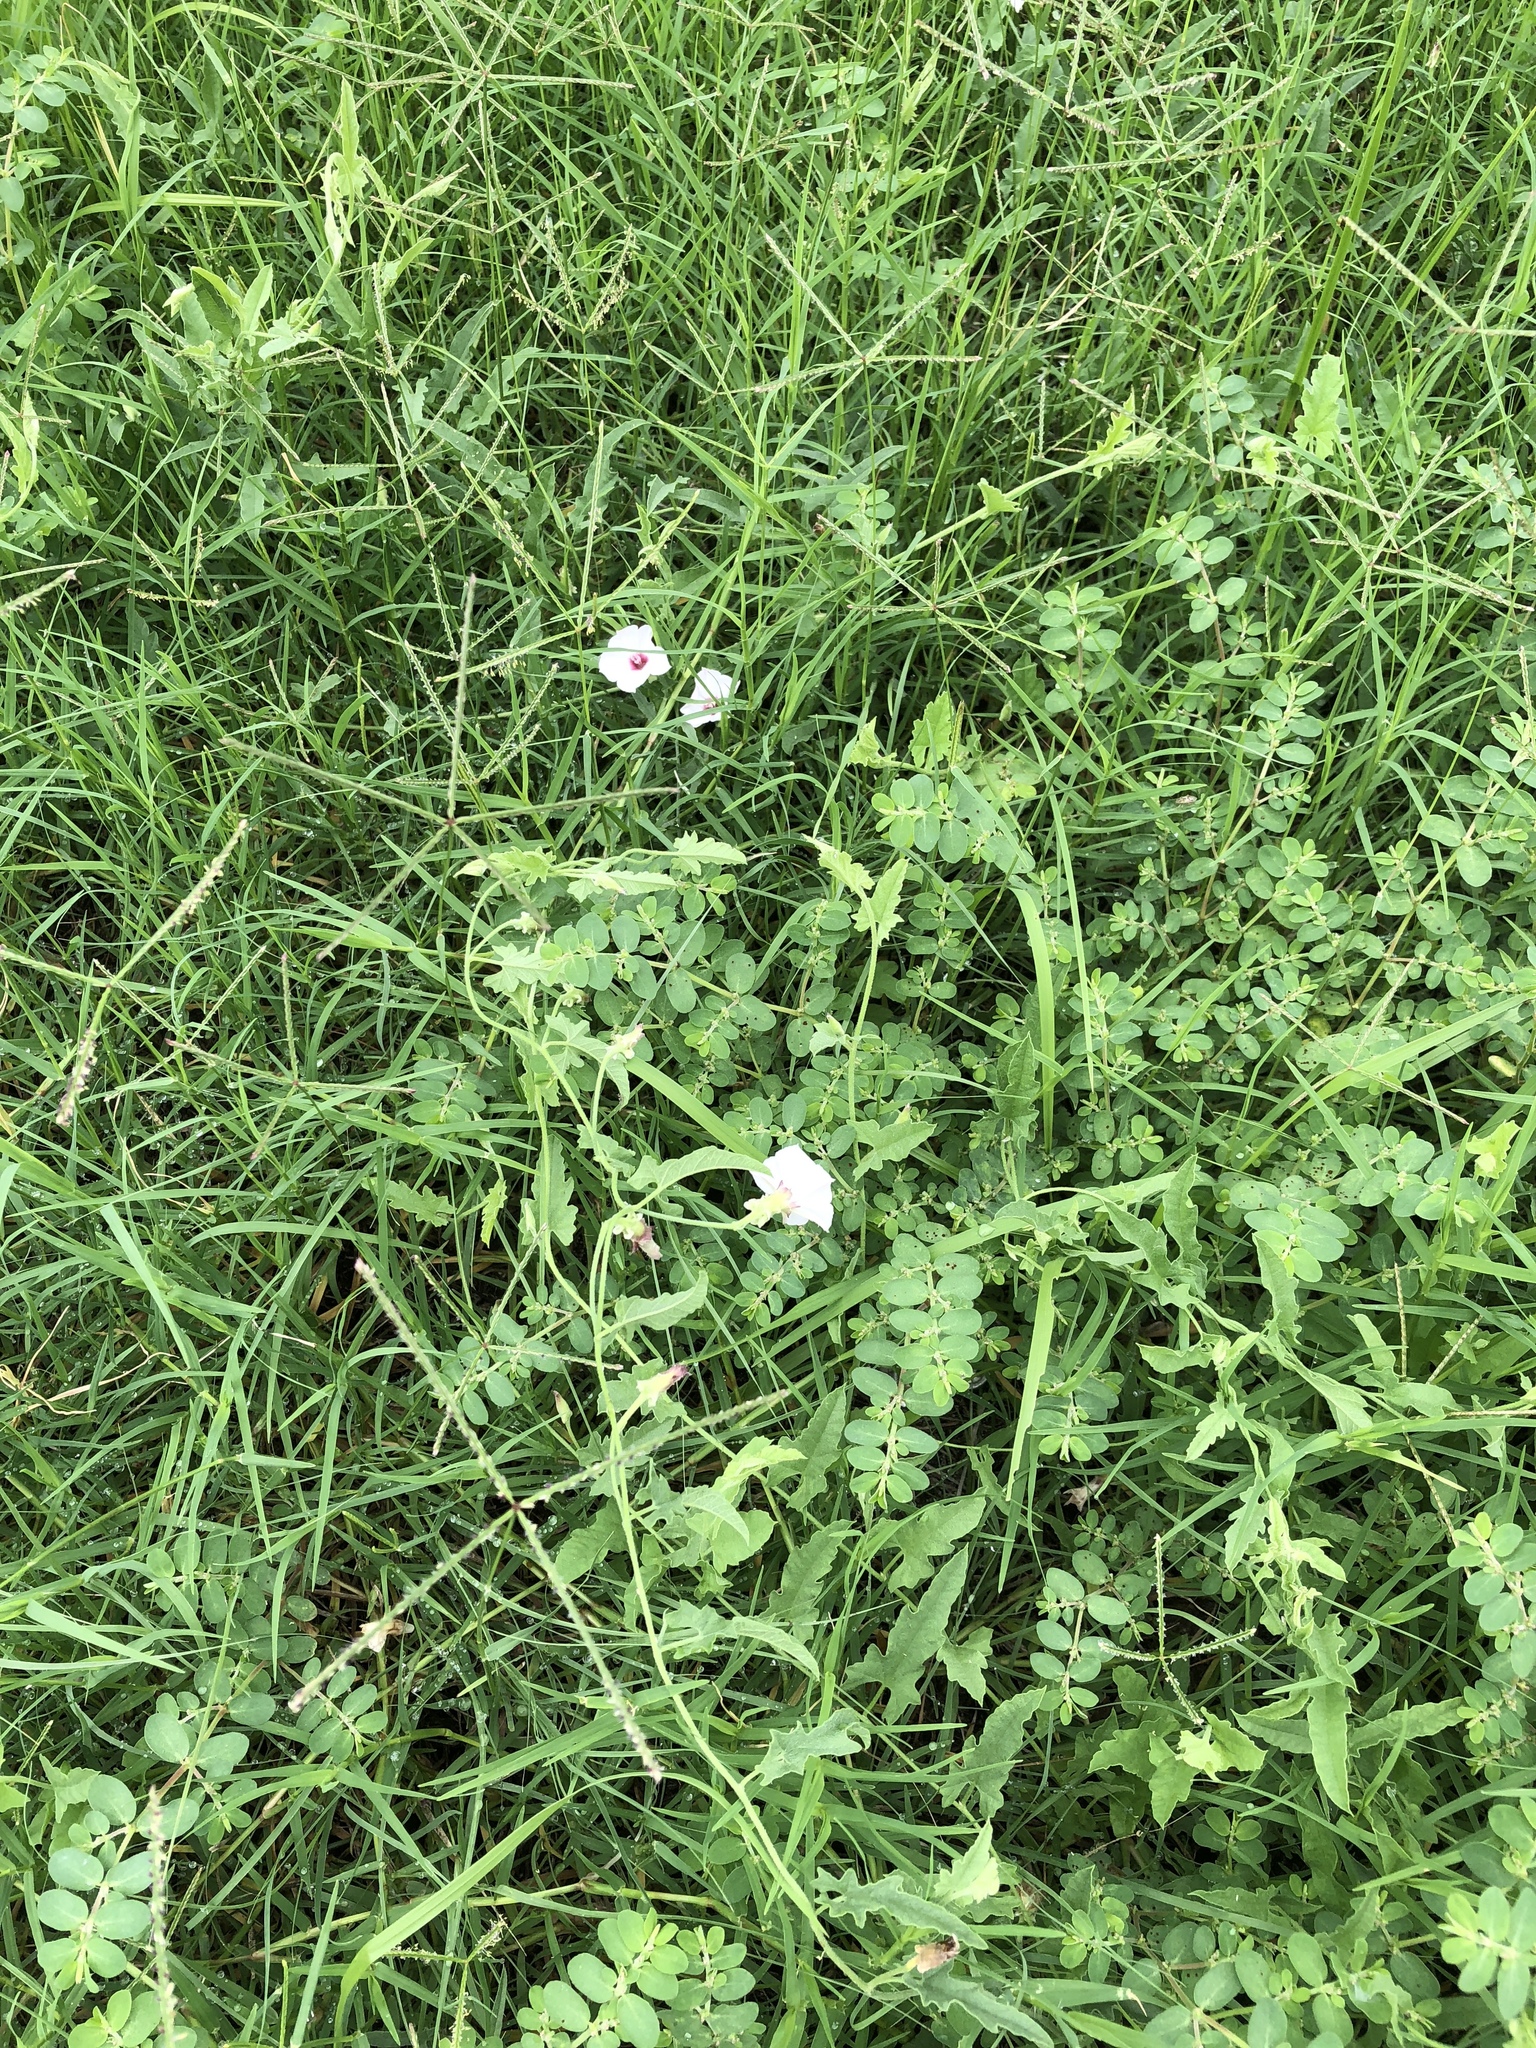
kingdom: Plantae
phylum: Tracheophyta
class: Magnoliopsida
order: Solanales
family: Convolvulaceae
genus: Convolvulus
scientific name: Convolvulus equitans
